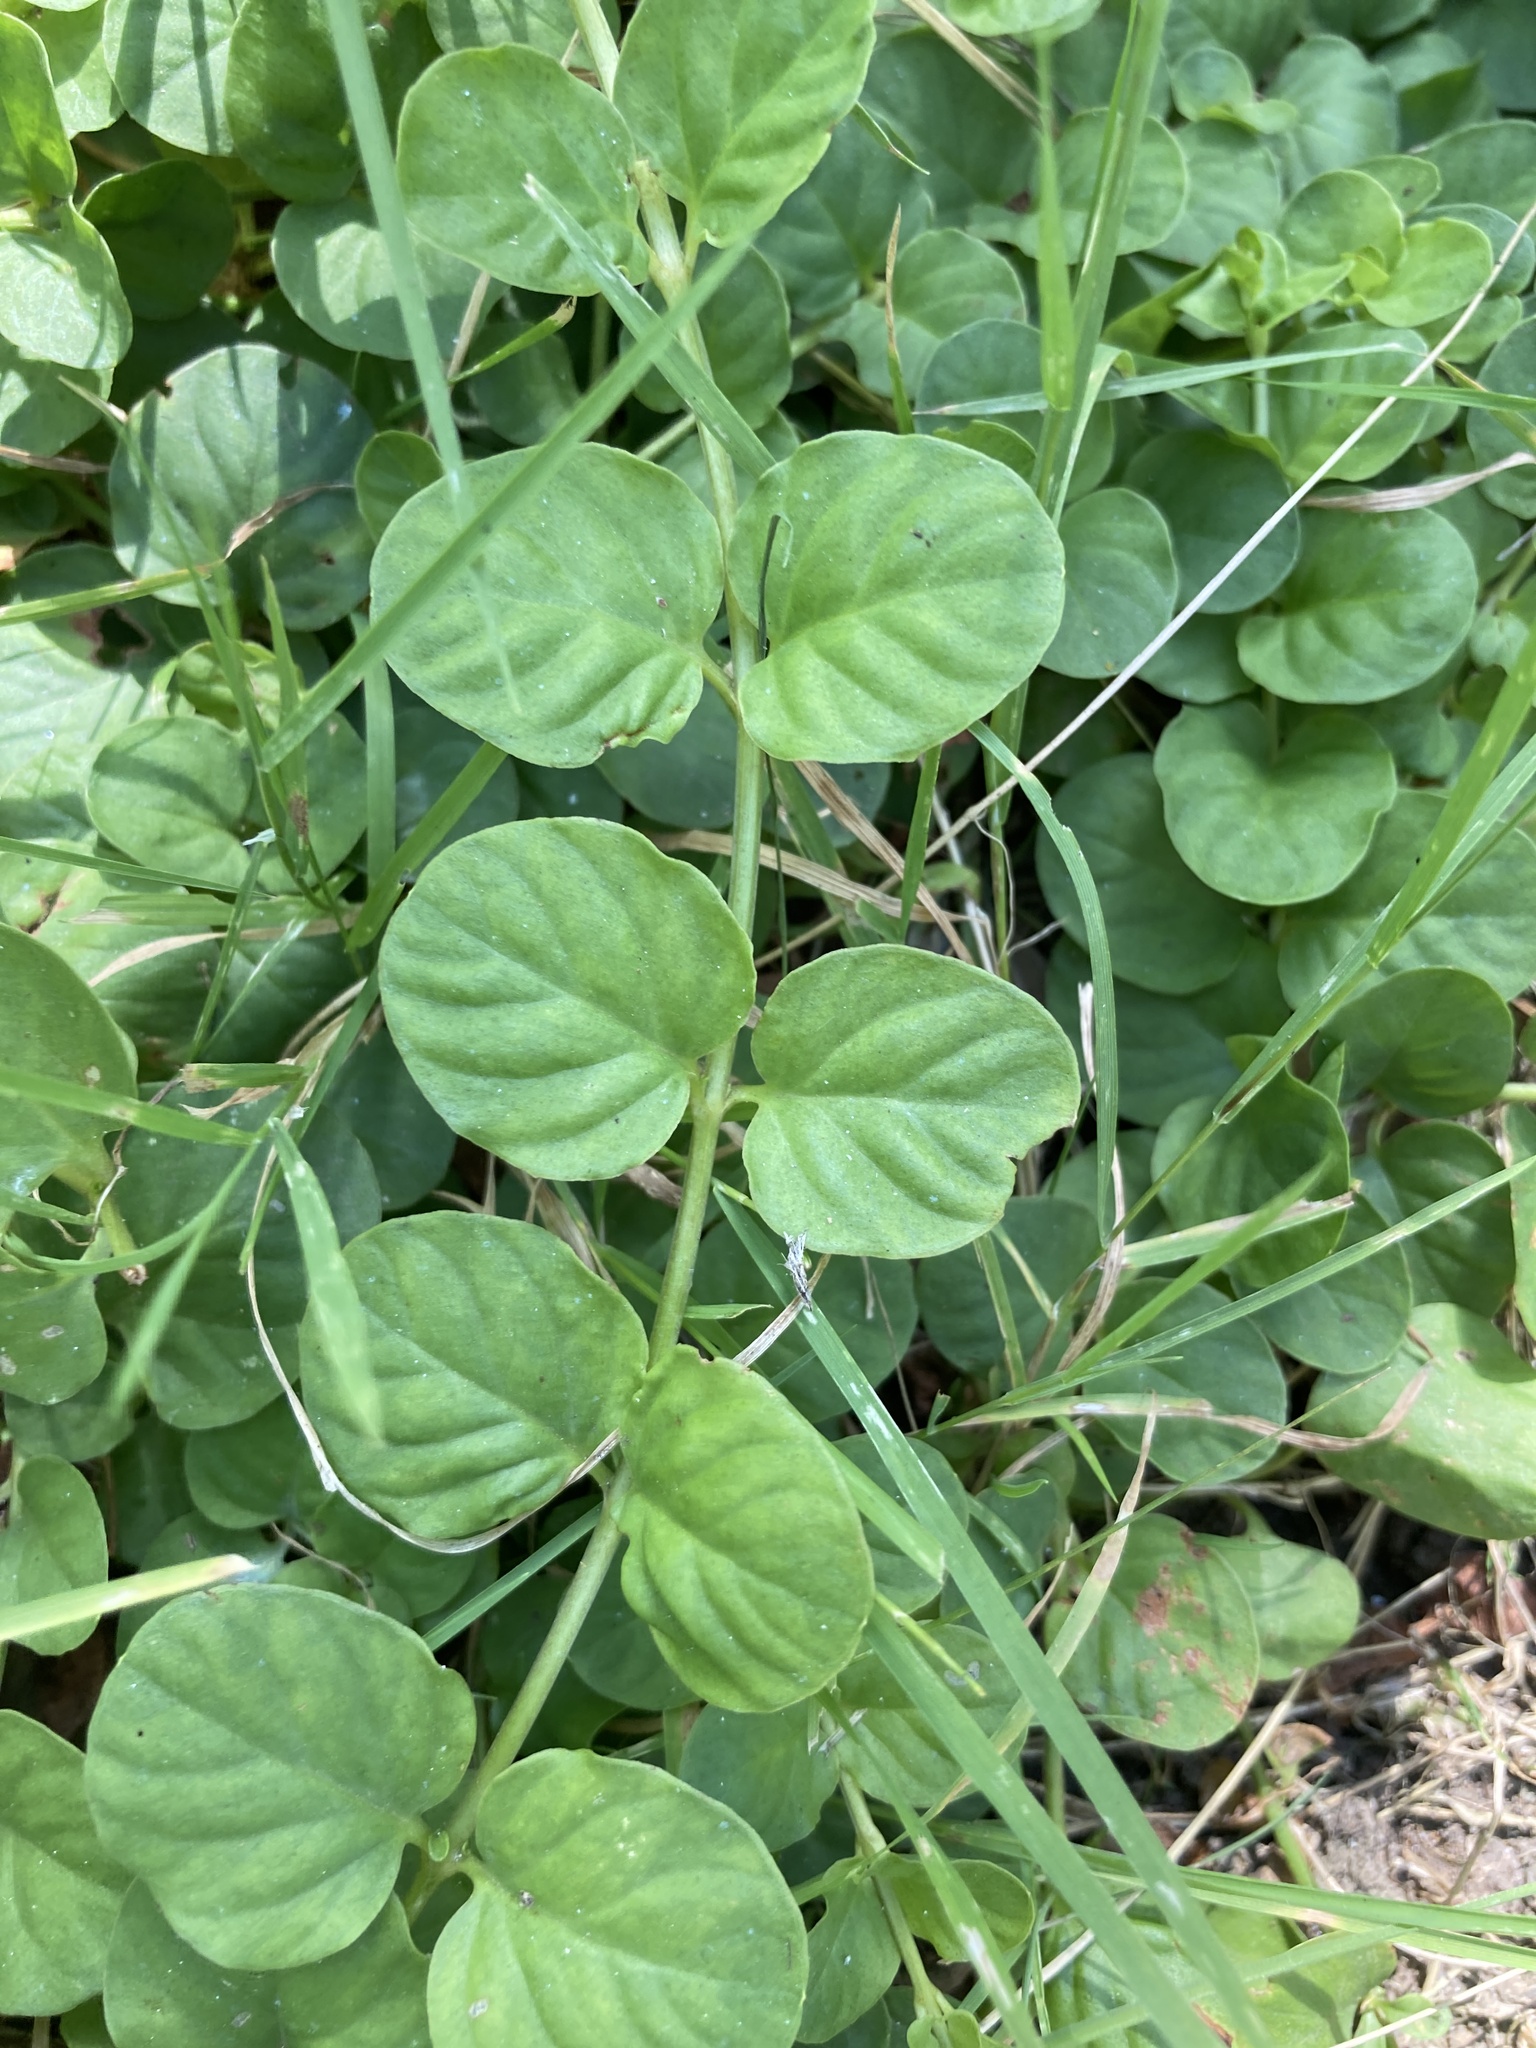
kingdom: Plantae
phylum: Tracheophyta
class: Magnoliopsida
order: Ericales
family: Primulaceae
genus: Lysimachia
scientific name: Lysimachia nummularia
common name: Moneywort
